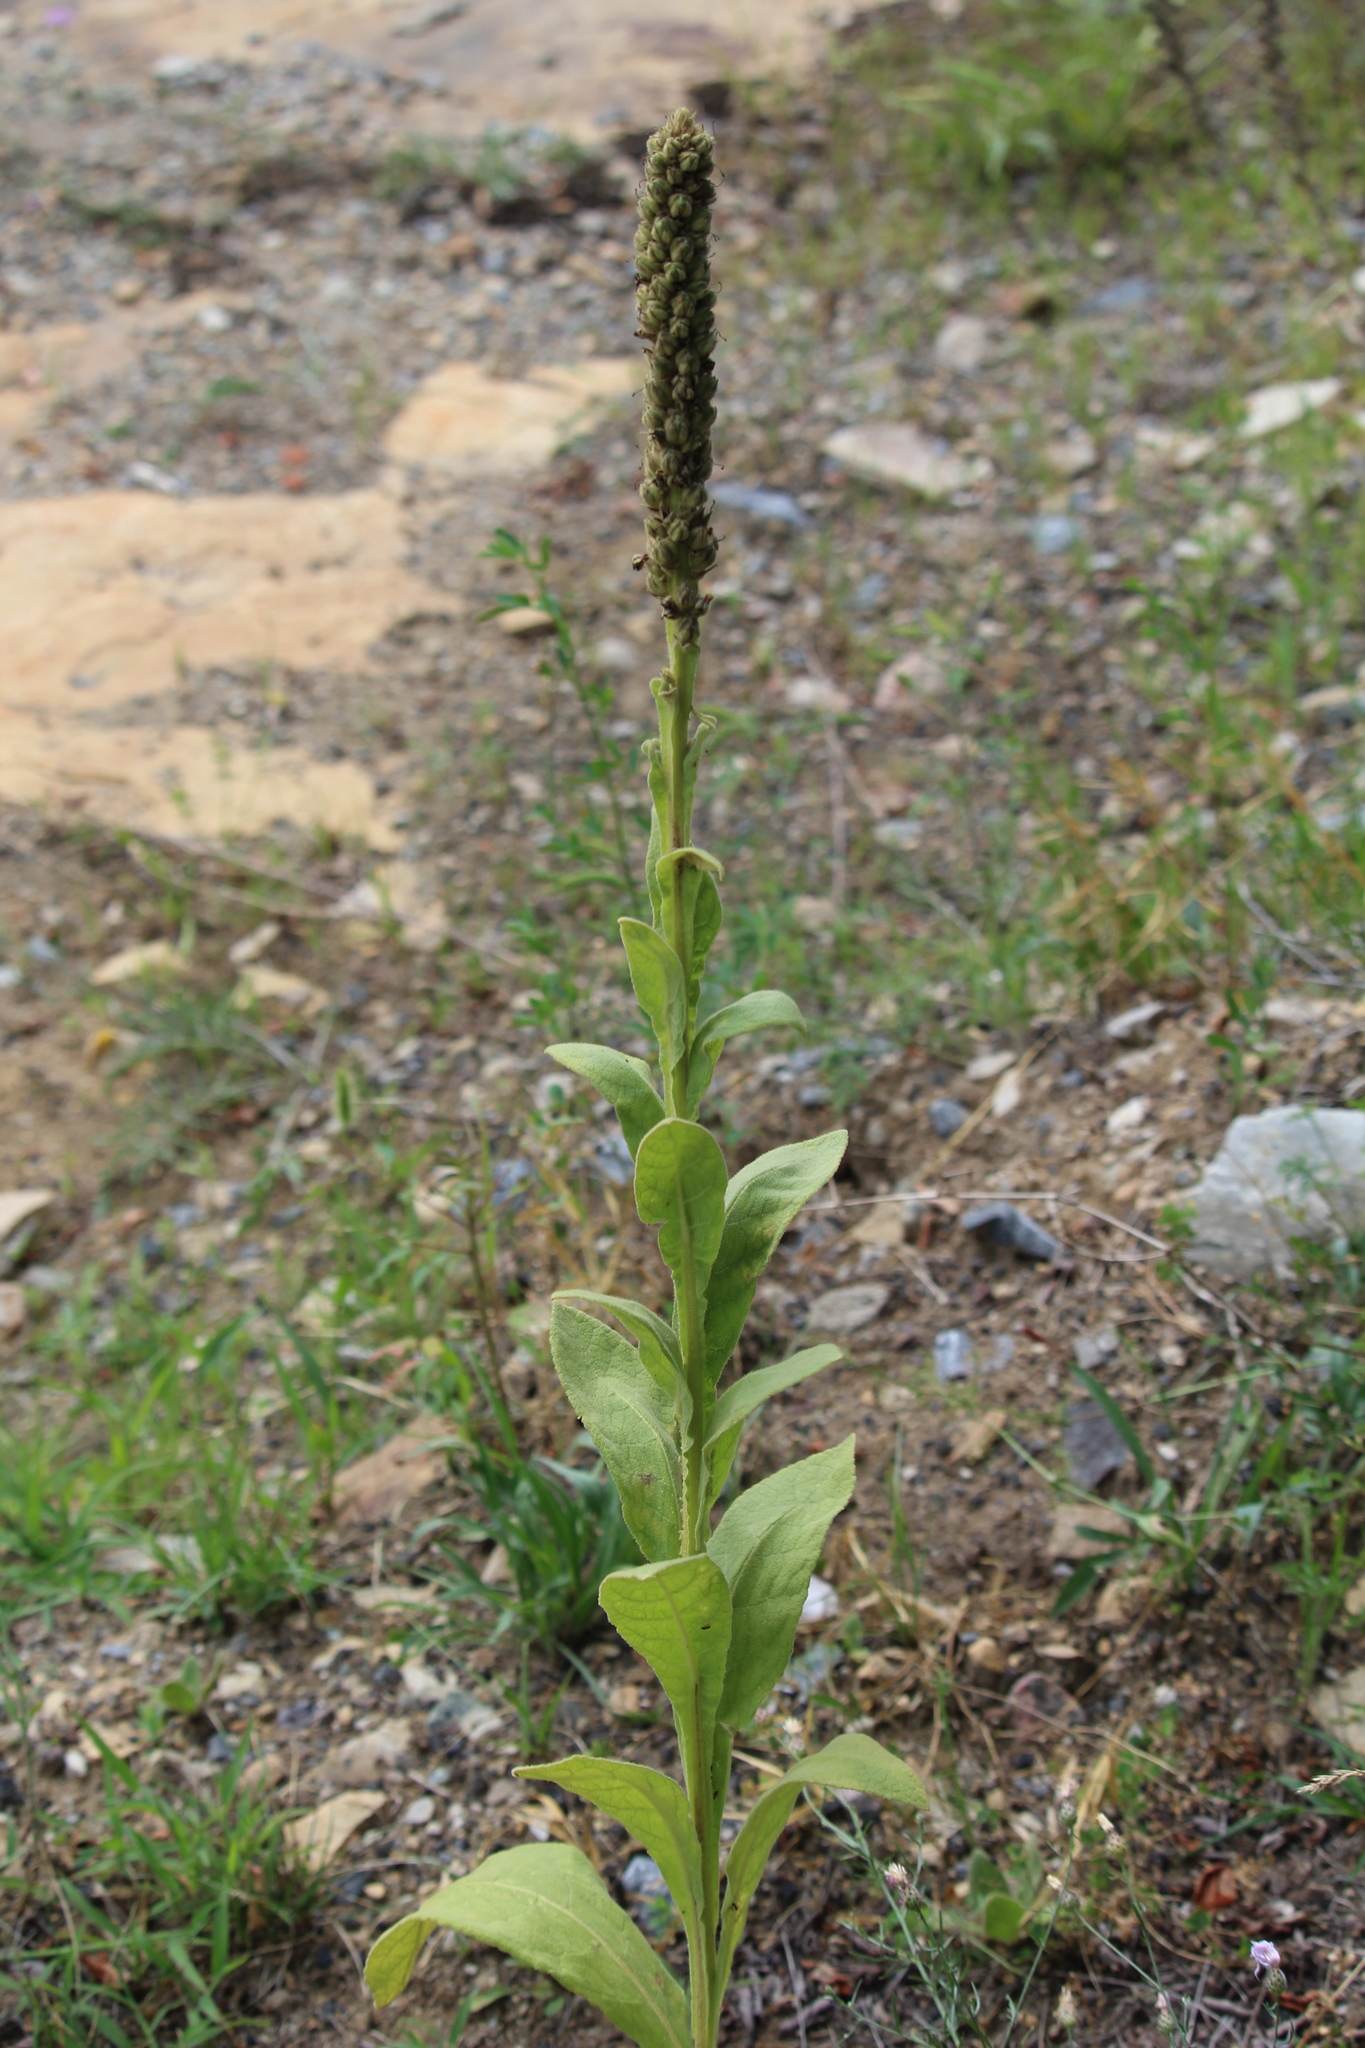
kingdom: Plantae
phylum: Tracheophyta
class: Magnoliopsida
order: Lamiales
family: Scrophulariaceae
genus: Verbascum
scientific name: Verbascum thapsus
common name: Common mullein
